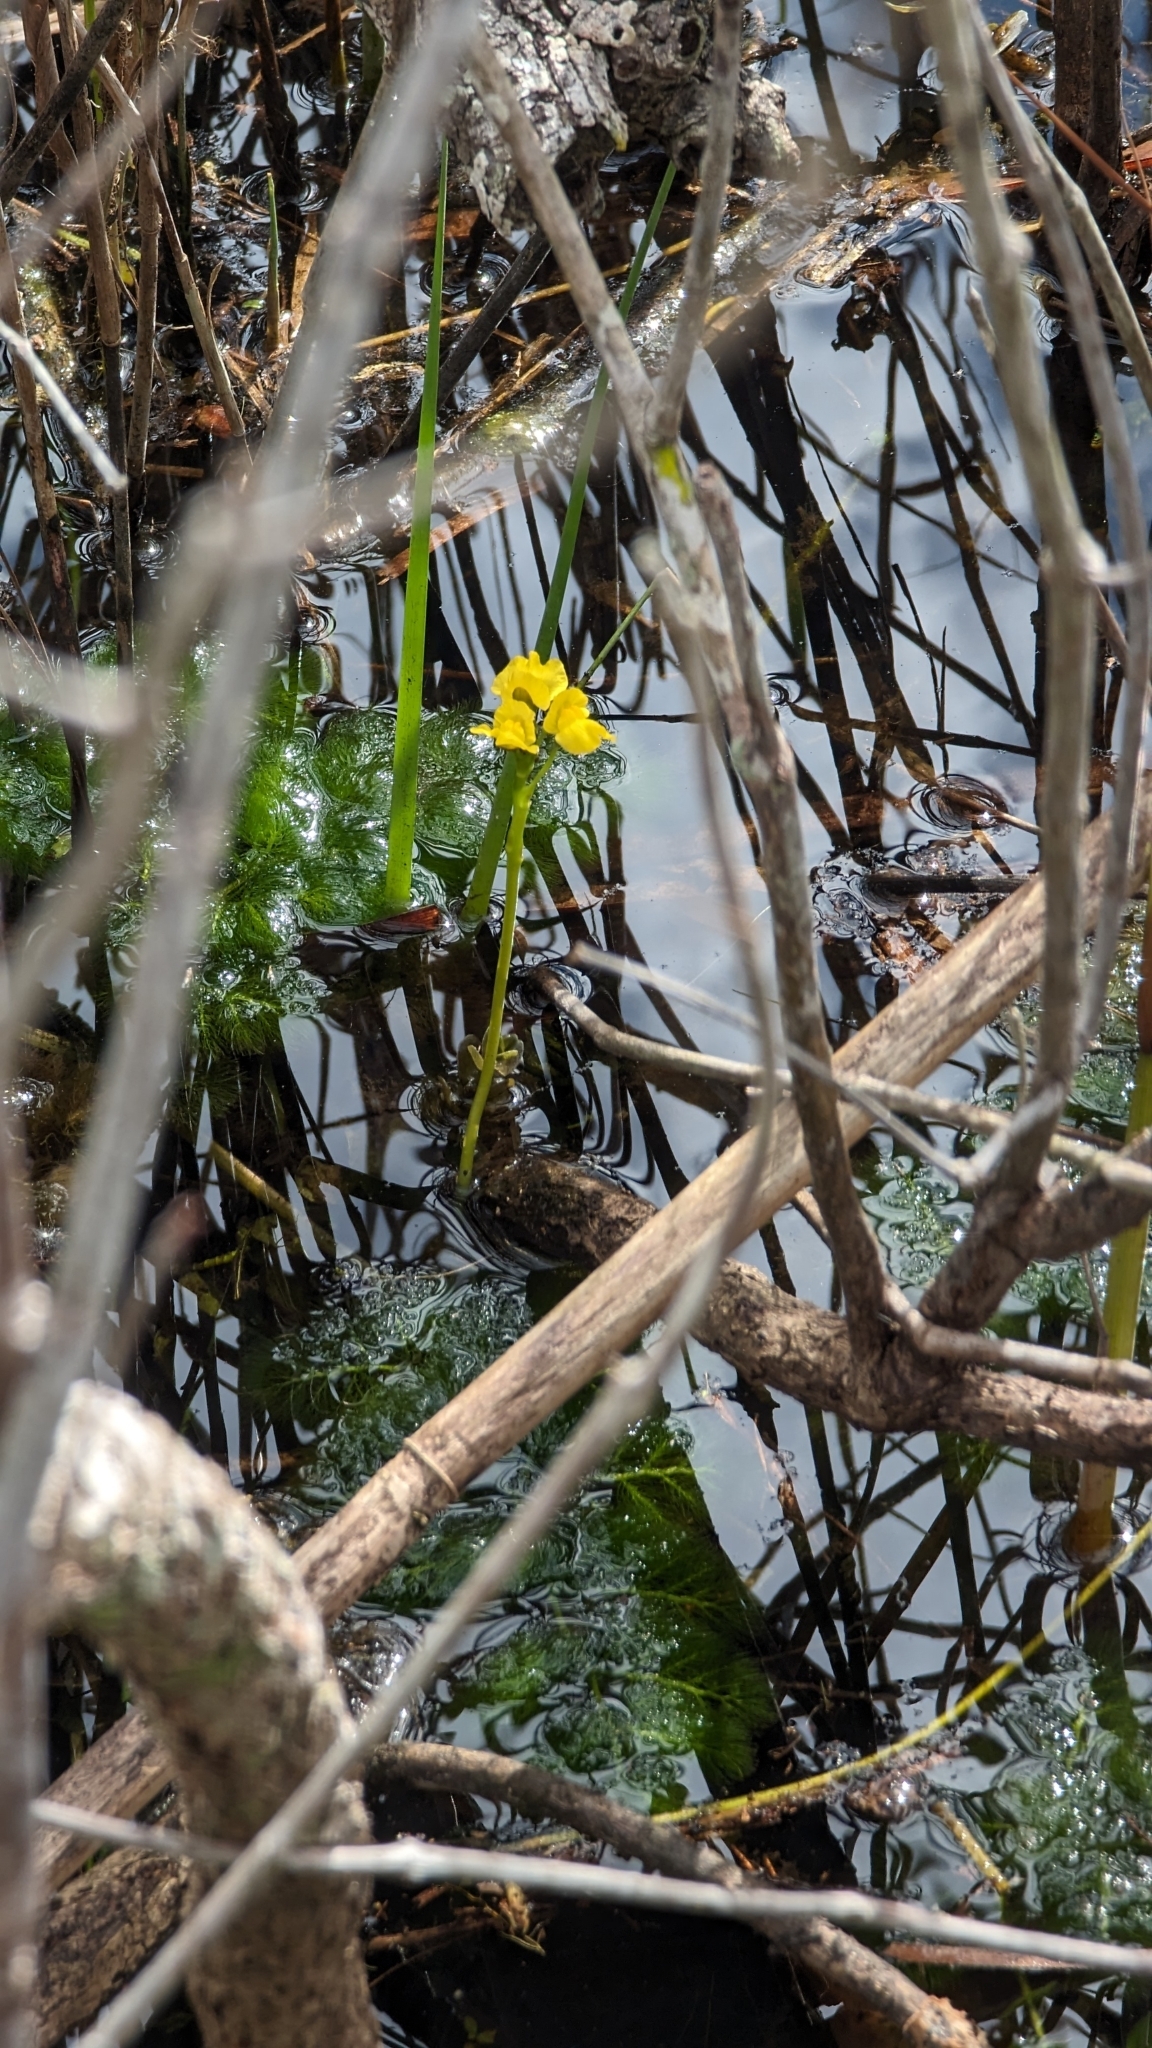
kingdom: Plantae
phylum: Tracheophyta
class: Magnoliopsida
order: Lamiales
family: Lentibulariaceae
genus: Utricularia
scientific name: Utricularia foliosa
